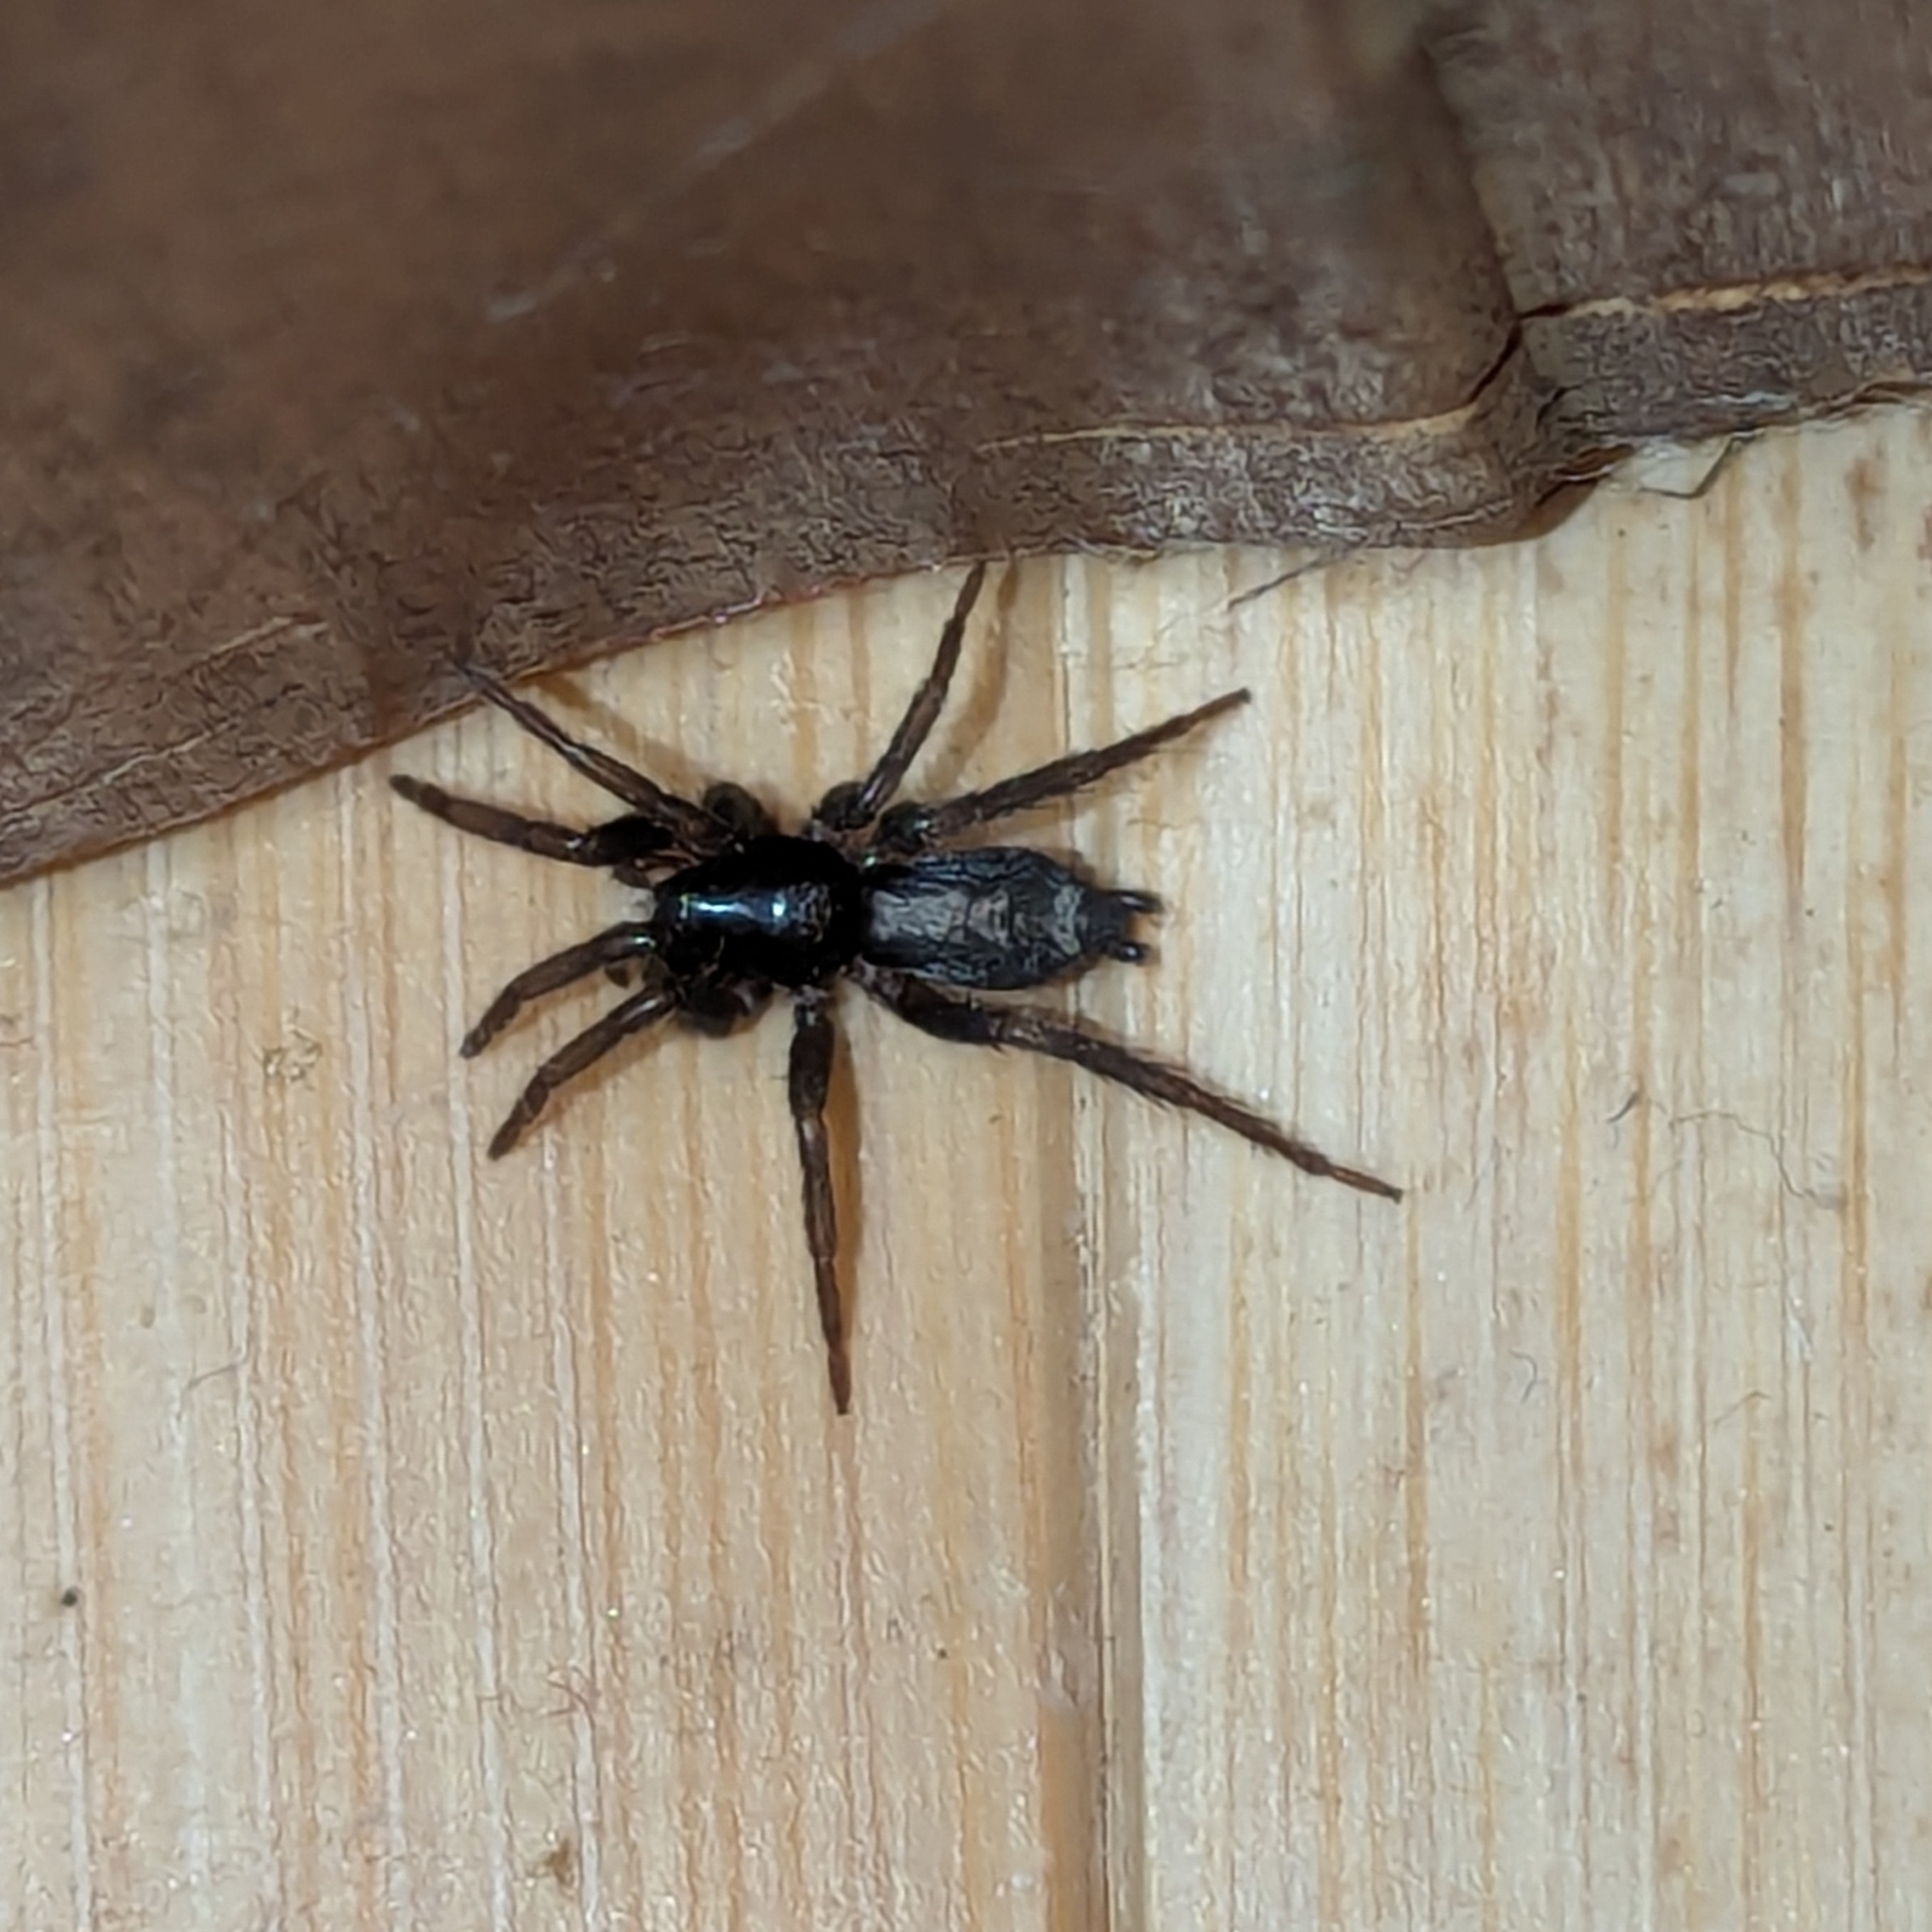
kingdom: Animalia
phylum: Arthropoda
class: Arachnida
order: Araneae
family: Gnaphosidae
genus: Herpyllus
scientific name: Herpyllus ecclesiasticus
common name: Eastern parson spider
